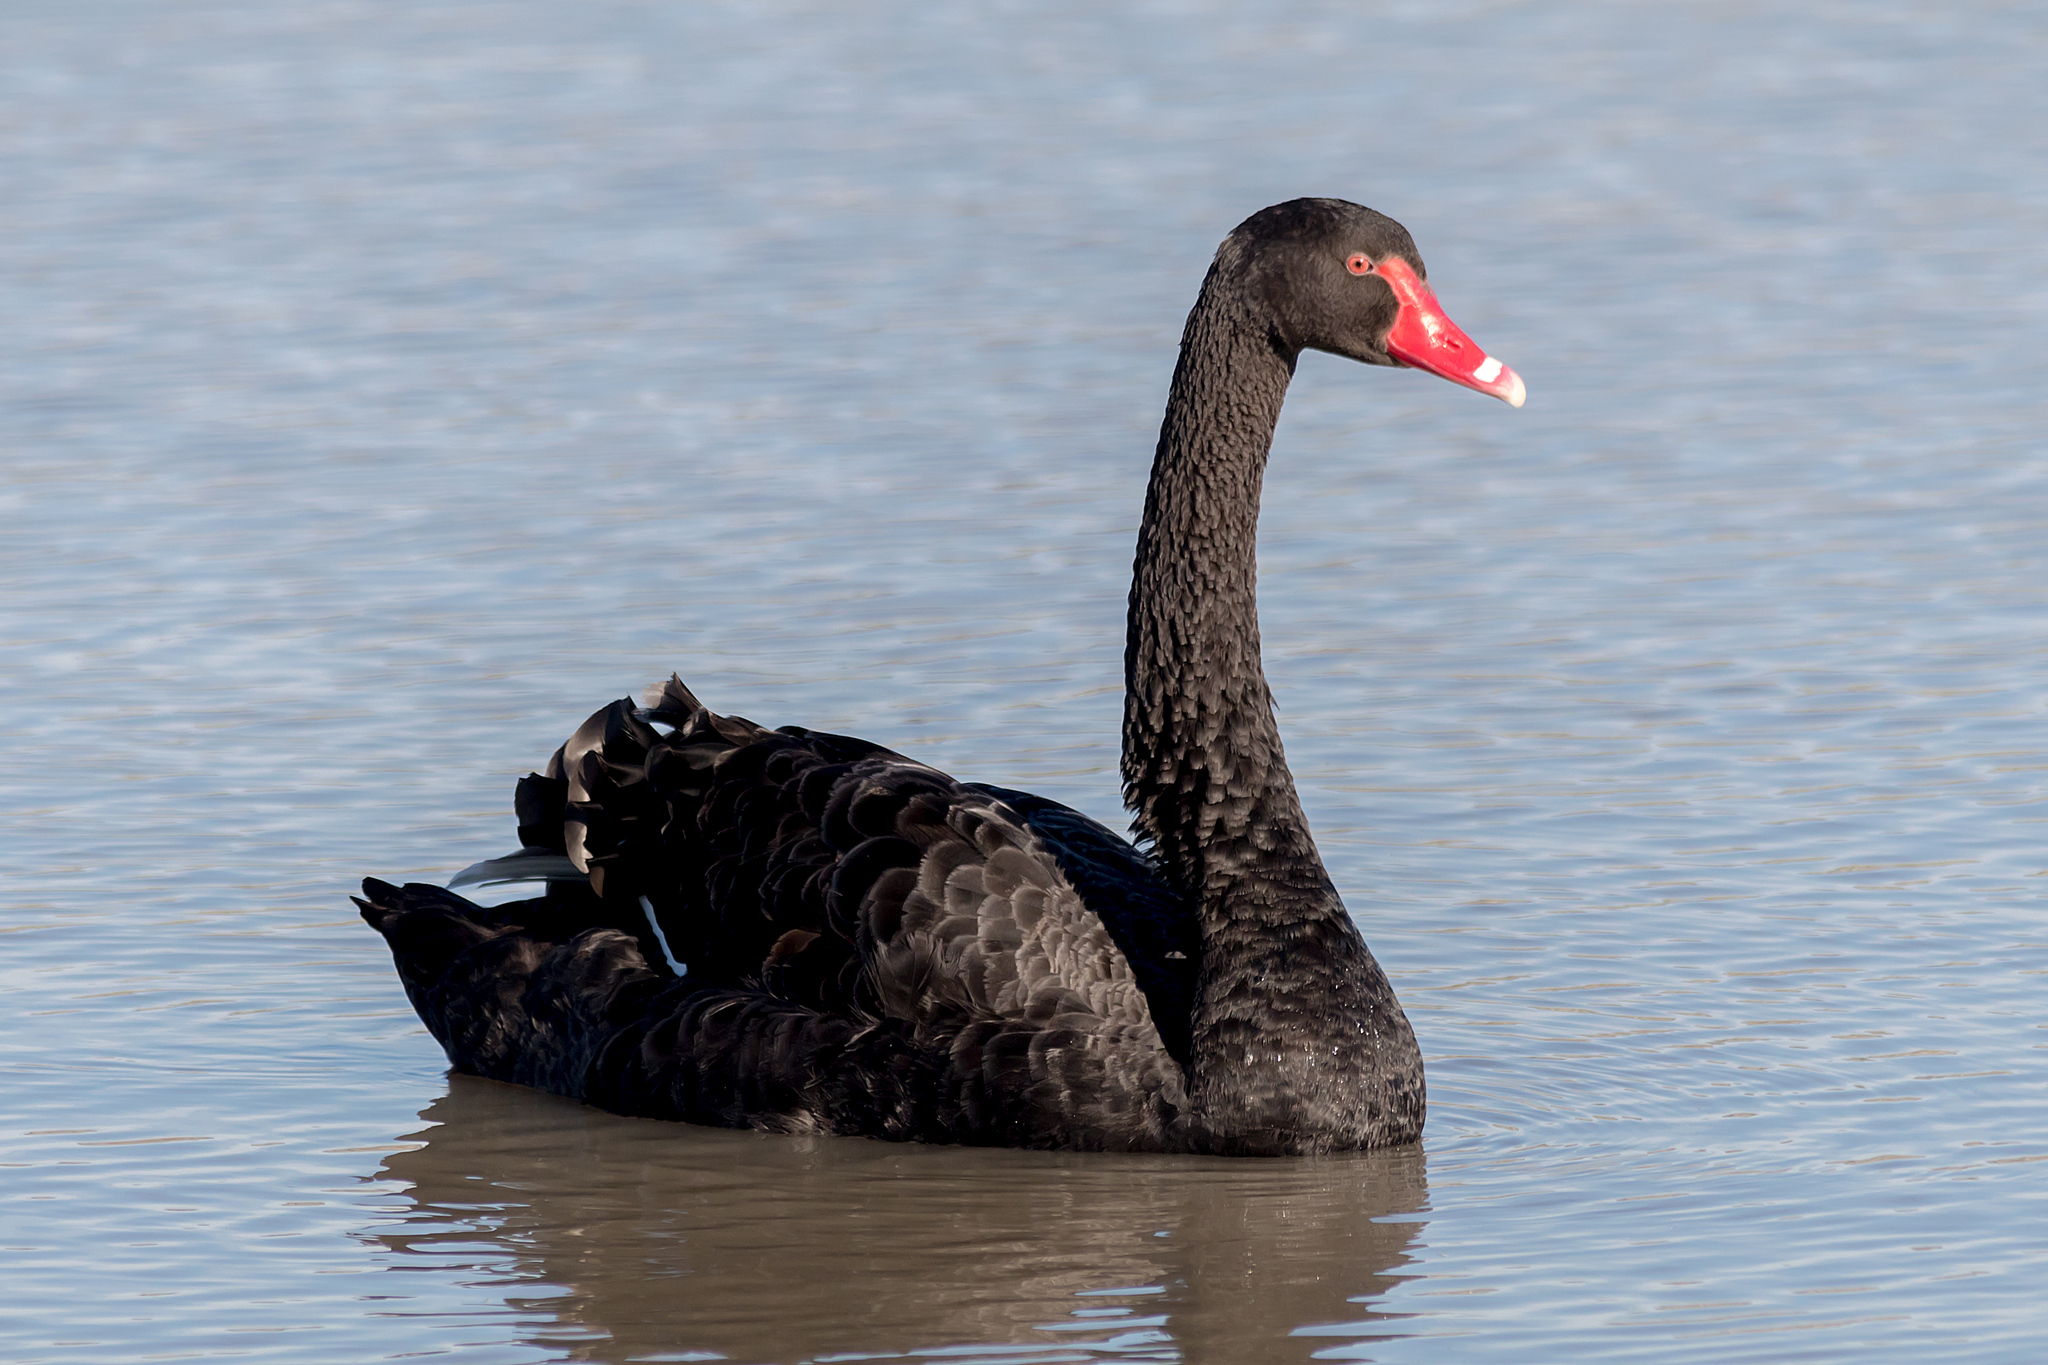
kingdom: Animalia
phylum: Chordata
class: Aves
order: Anseriformes
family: Anatidae
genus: Cygnus
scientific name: Cygnus atratus
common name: Black swan
